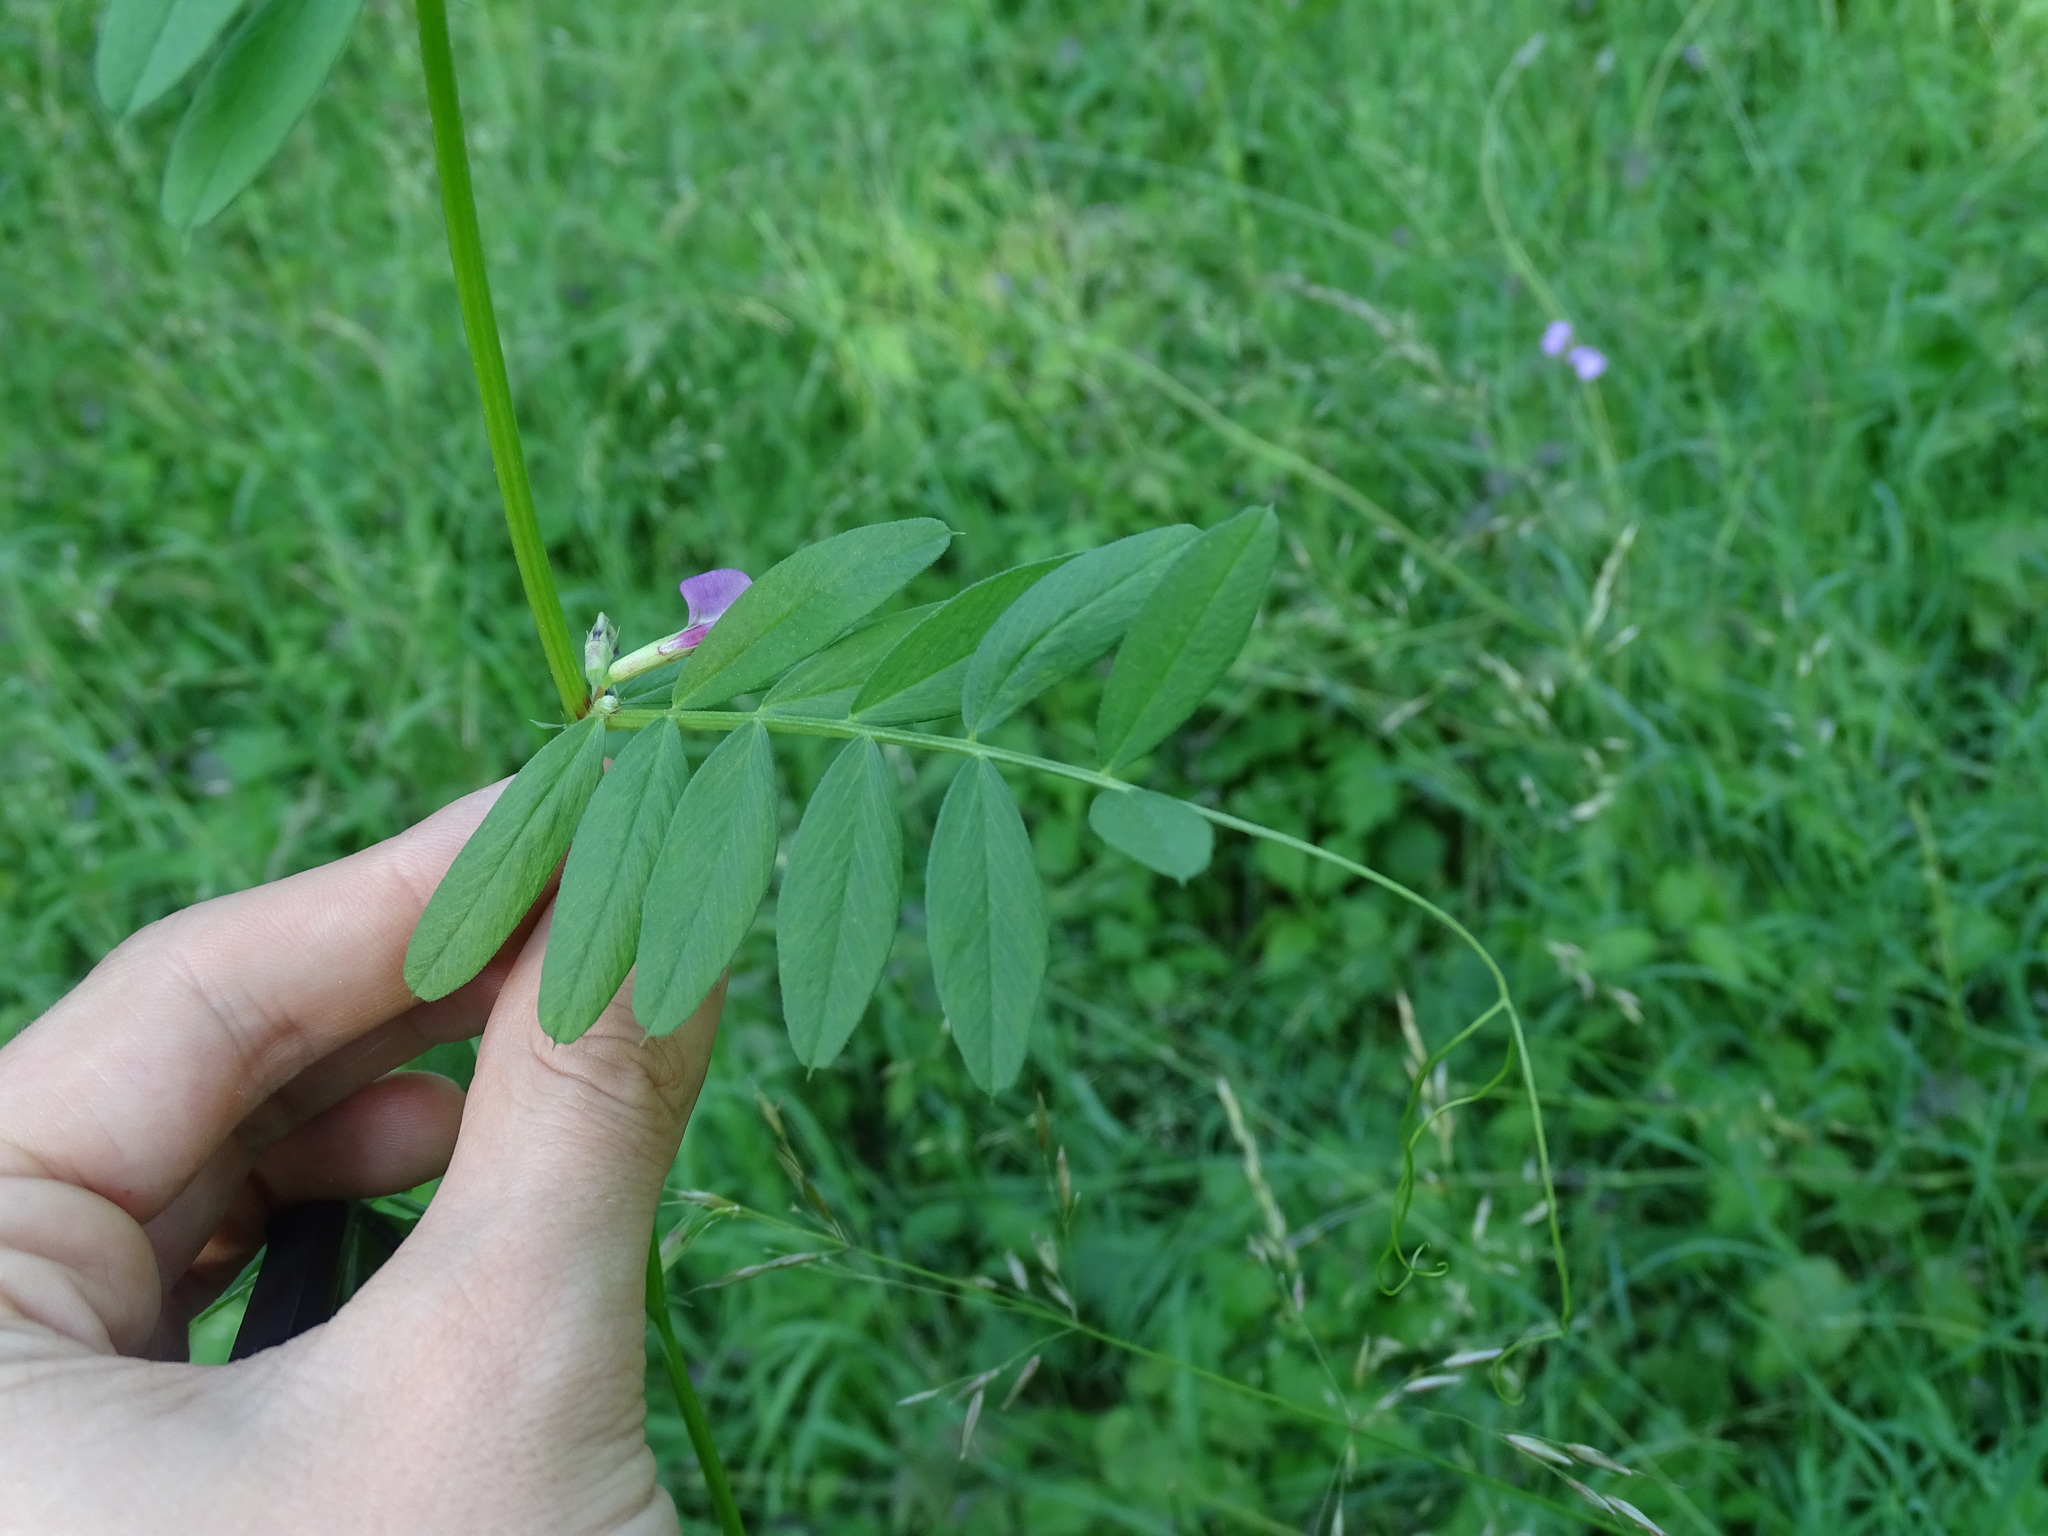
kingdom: Plantae
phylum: Tracheophyta
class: Magnoliopsida
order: Fabales
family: Fabaceae
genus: Vicia
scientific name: Vicia sativa
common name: Garden vetch
